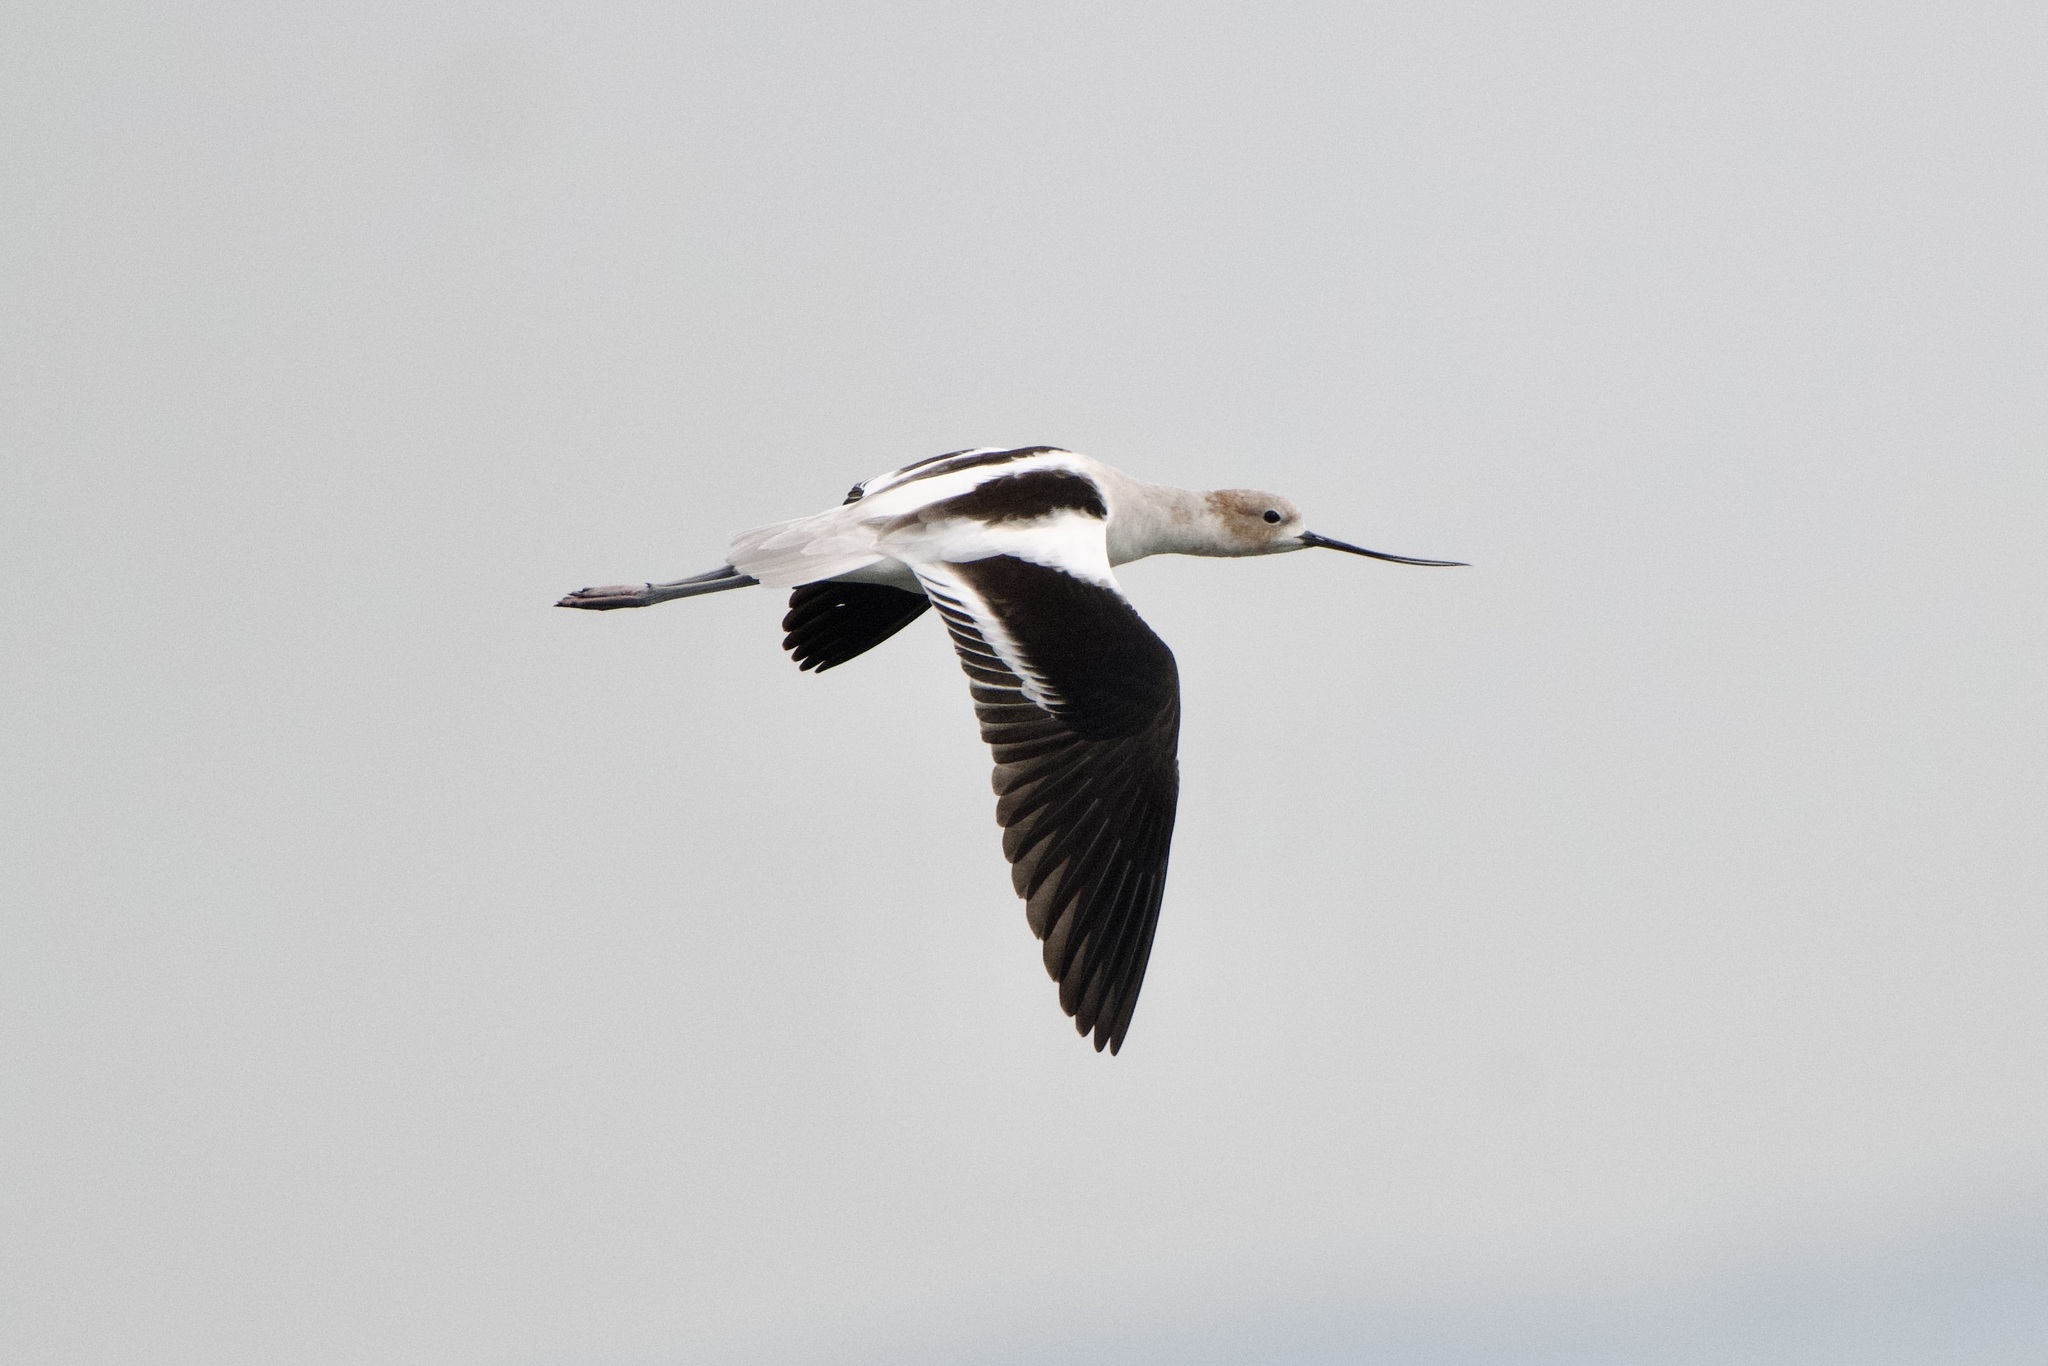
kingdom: Animalia
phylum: Chordata
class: Aves
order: Charadriiformes
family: Recurvirostridae
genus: Recurvirostra
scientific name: Recurvirostra americana
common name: American avocet
